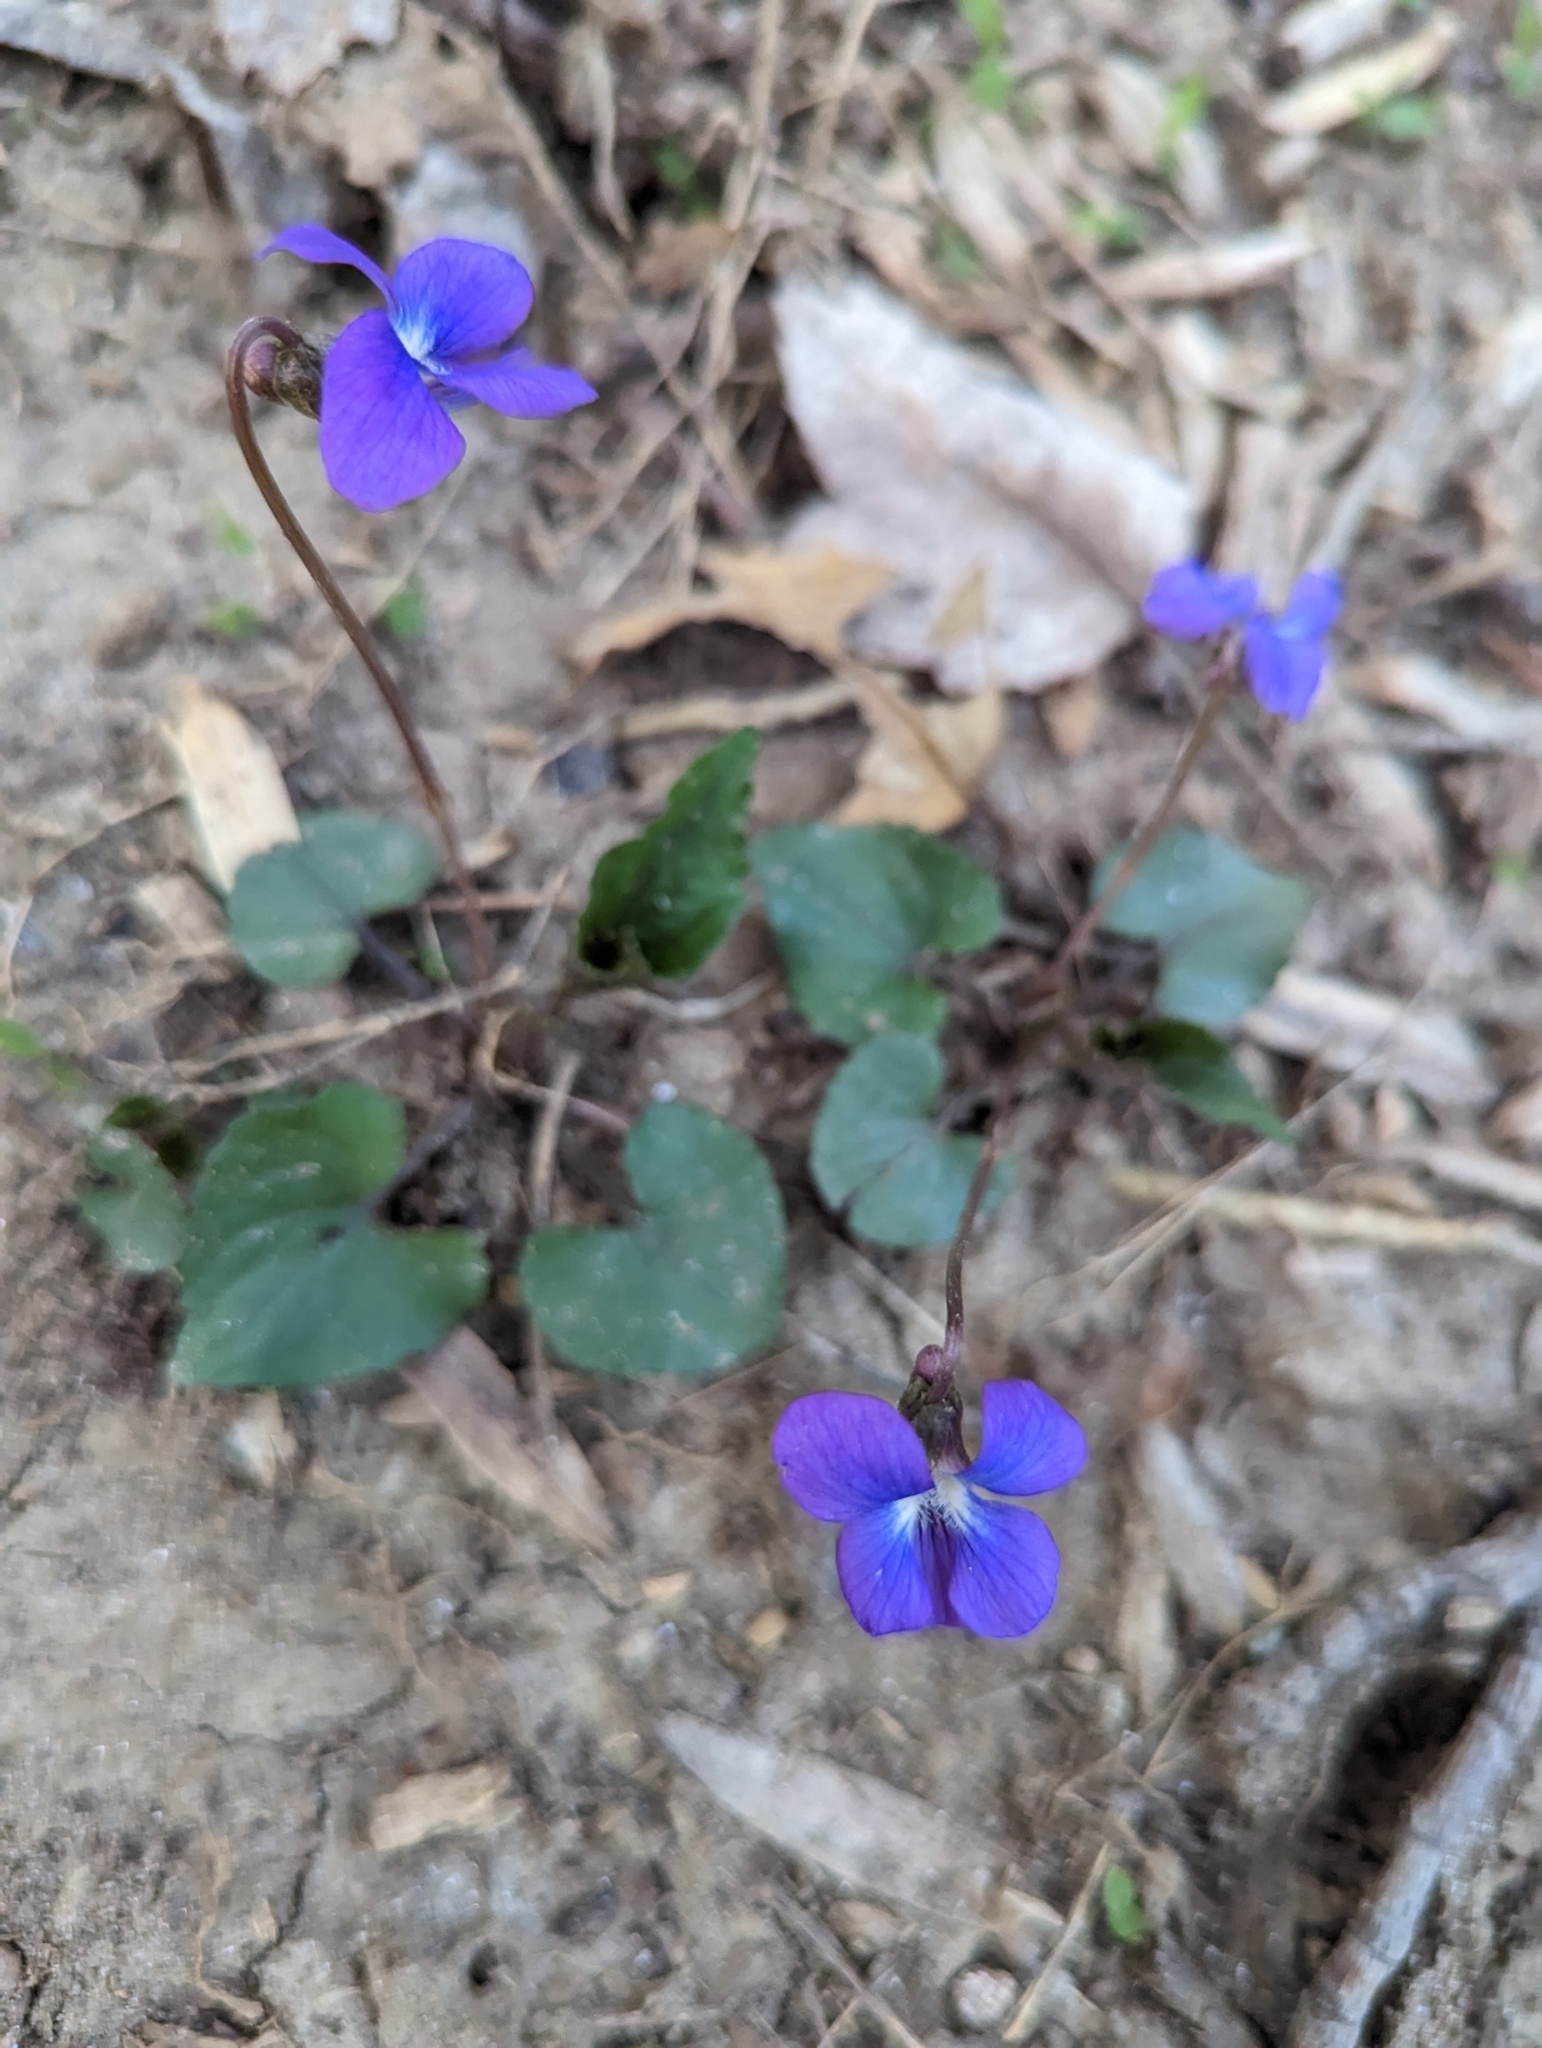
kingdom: Plantae
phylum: Tracheophyta
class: Magnoliopsida
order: Malpighiales
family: Violaceae
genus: Viola
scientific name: Viola sororia
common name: Dooryard violet
